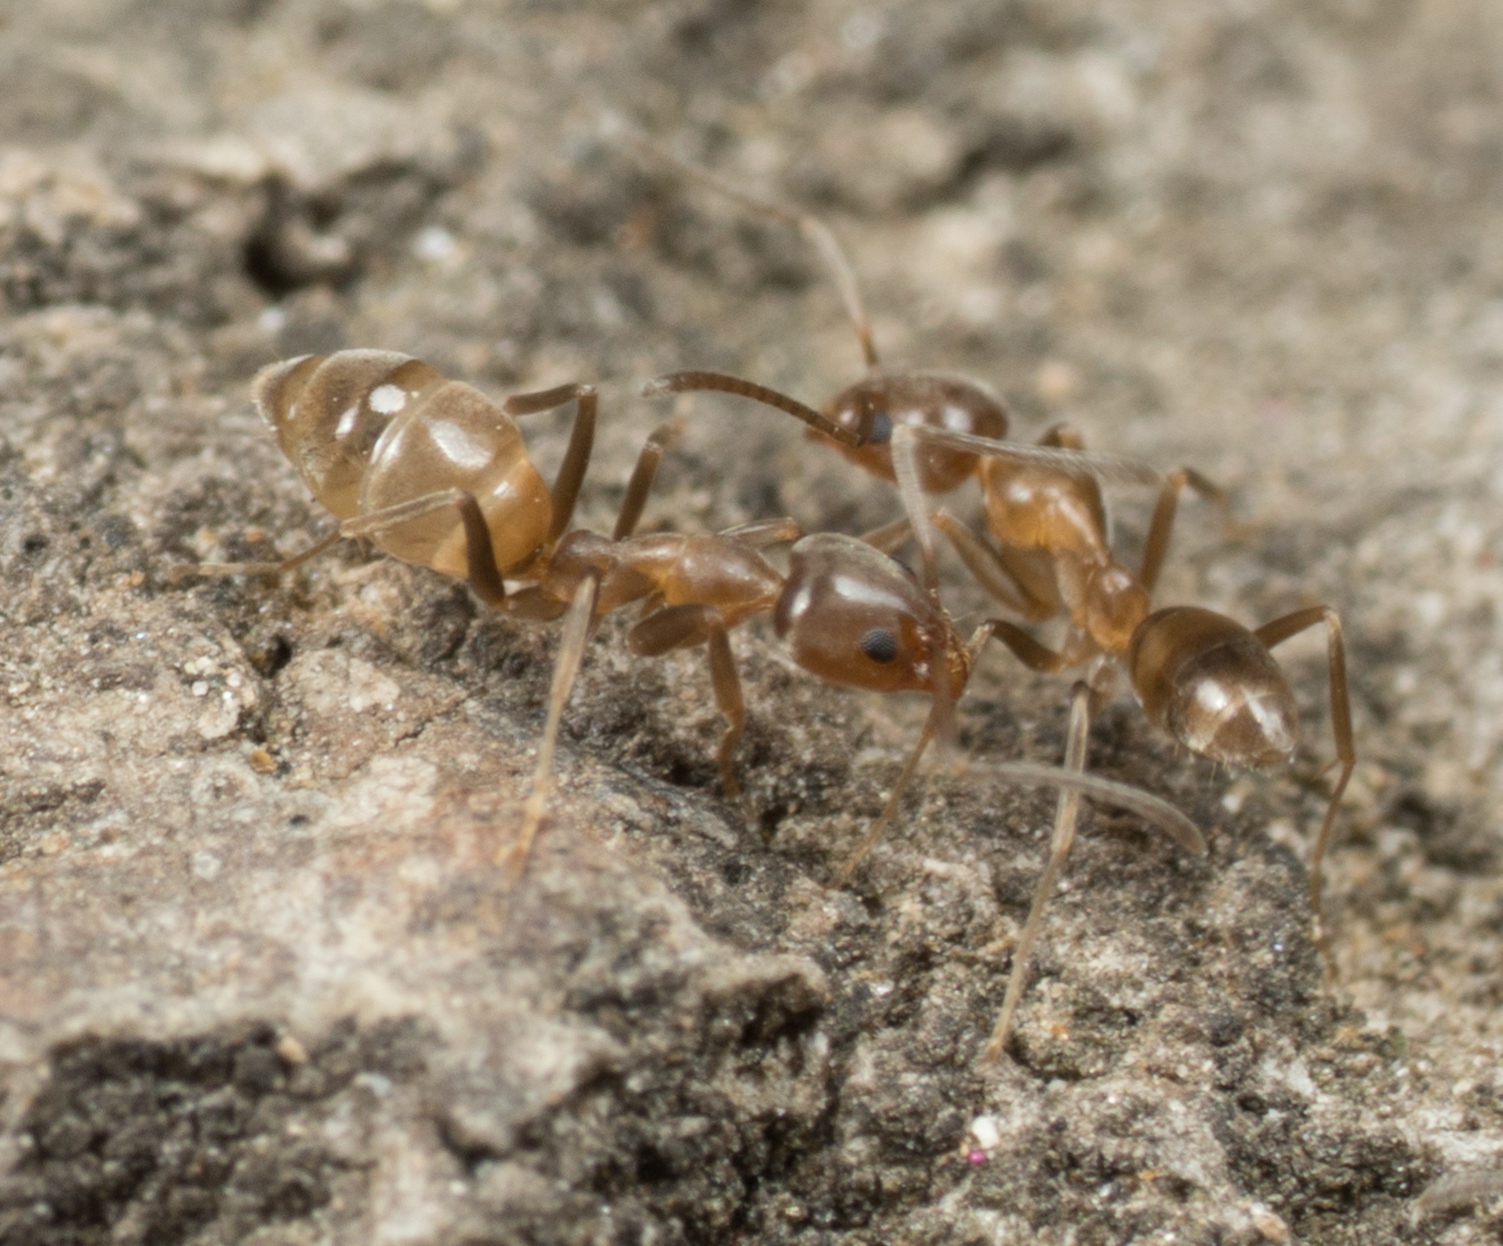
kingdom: Animalia
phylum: Arthropoda
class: Insecta
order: Hymenoptera
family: Formicidae
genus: Linepithema
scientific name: Linepithema humile
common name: Argentine ant
